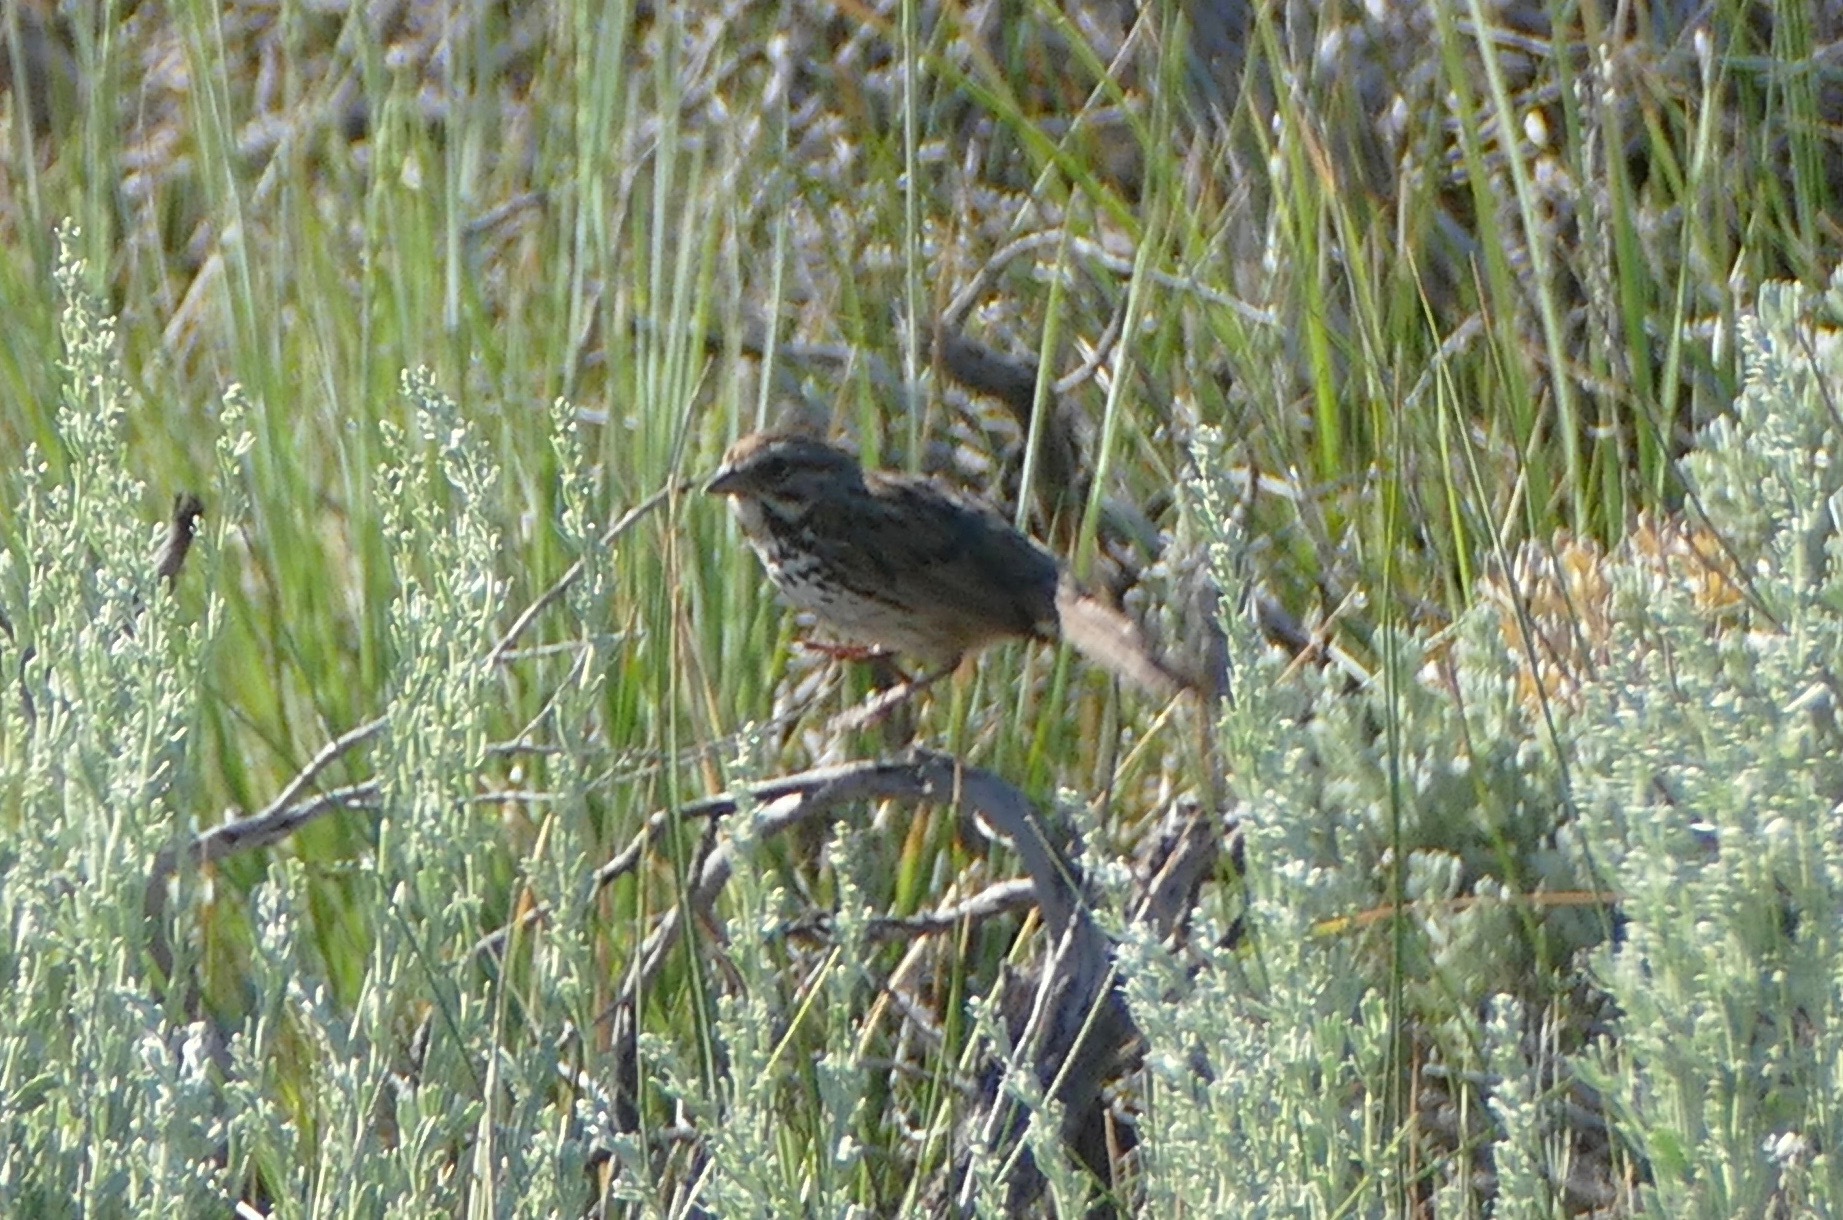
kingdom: Animalia
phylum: Chordata
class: Aves
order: Passeriformes
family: Passerellidae
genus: Melospiza
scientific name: Melospiza melodia
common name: Song sparrow
